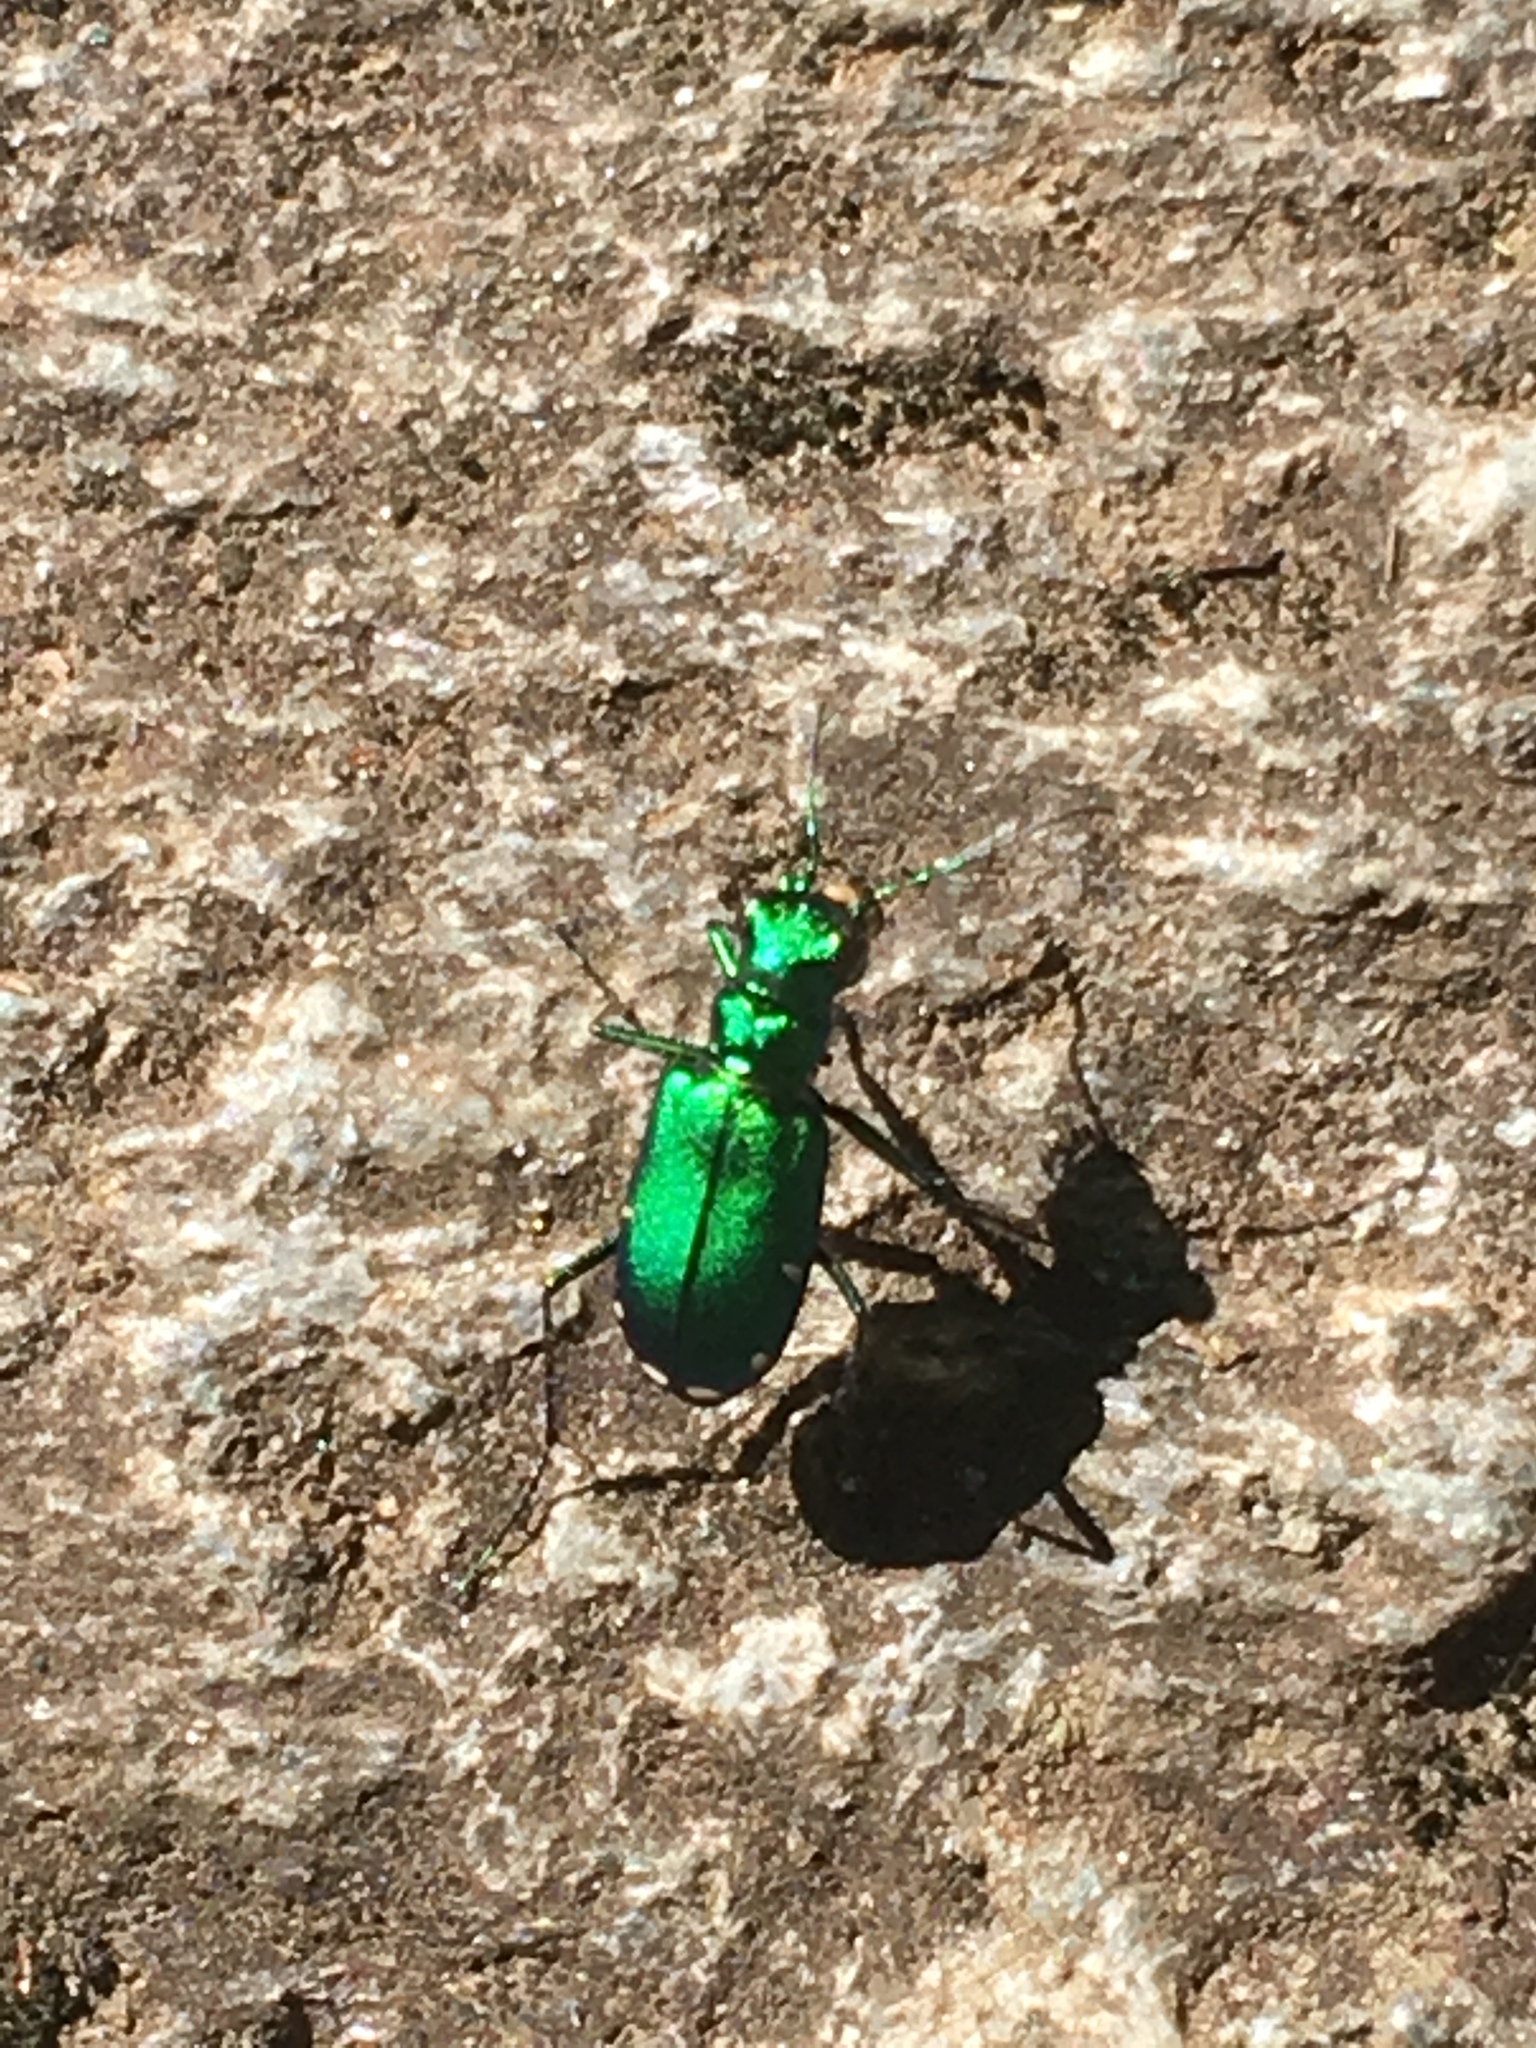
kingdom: Animalia
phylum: Arthropoda
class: Insecta
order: Coleoptera
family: Carabidae
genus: Cicindela
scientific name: Cicindela sexguttata
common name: Six-spotted tiger beetle
